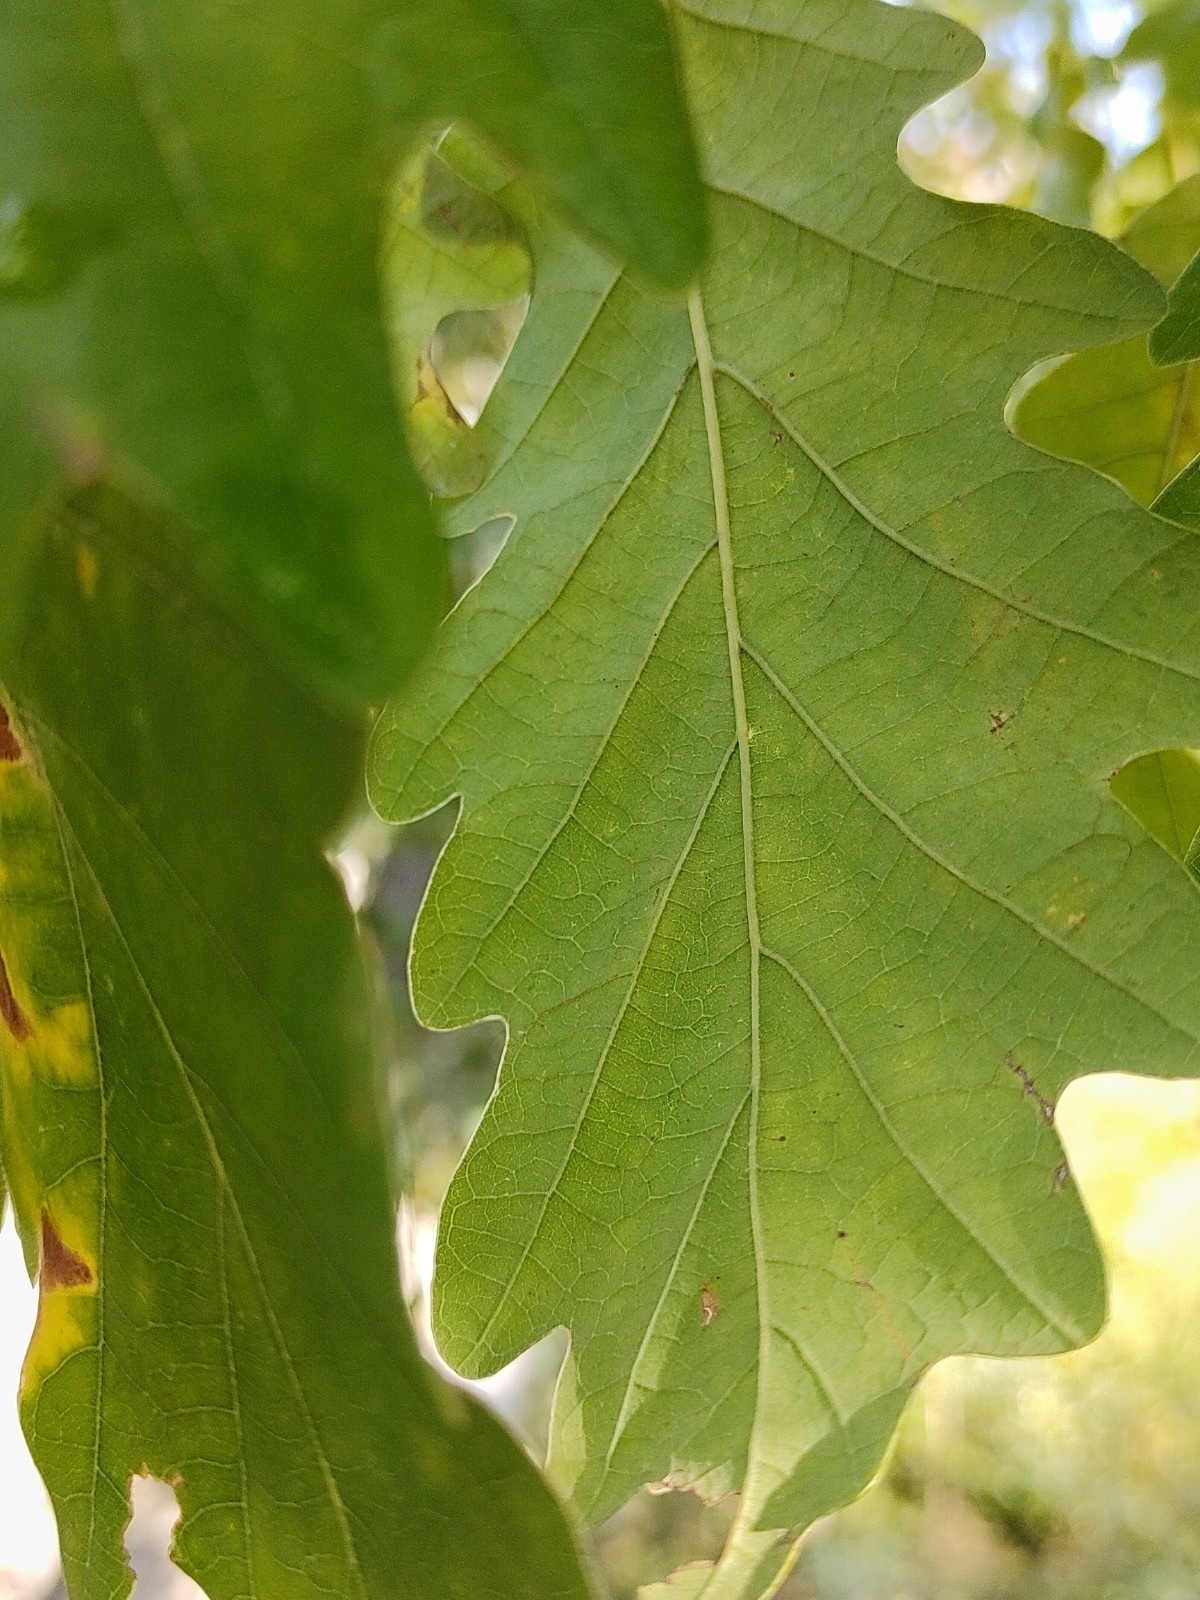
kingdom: Plantae
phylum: Tracheophyta
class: Magnoliopsida
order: Fagales
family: Fagaceae
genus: Quercus
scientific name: Quercus petraea
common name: Sessile oak
